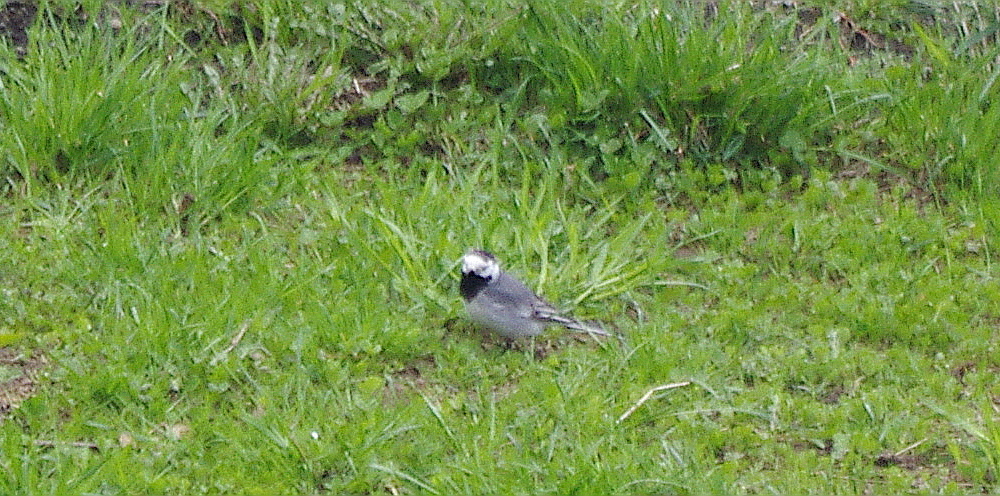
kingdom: Animalia
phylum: Chordata
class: Aves
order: Passeriformes
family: Motacillidae
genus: Motacilla
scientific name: Motacilla alba
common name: White wagtail
